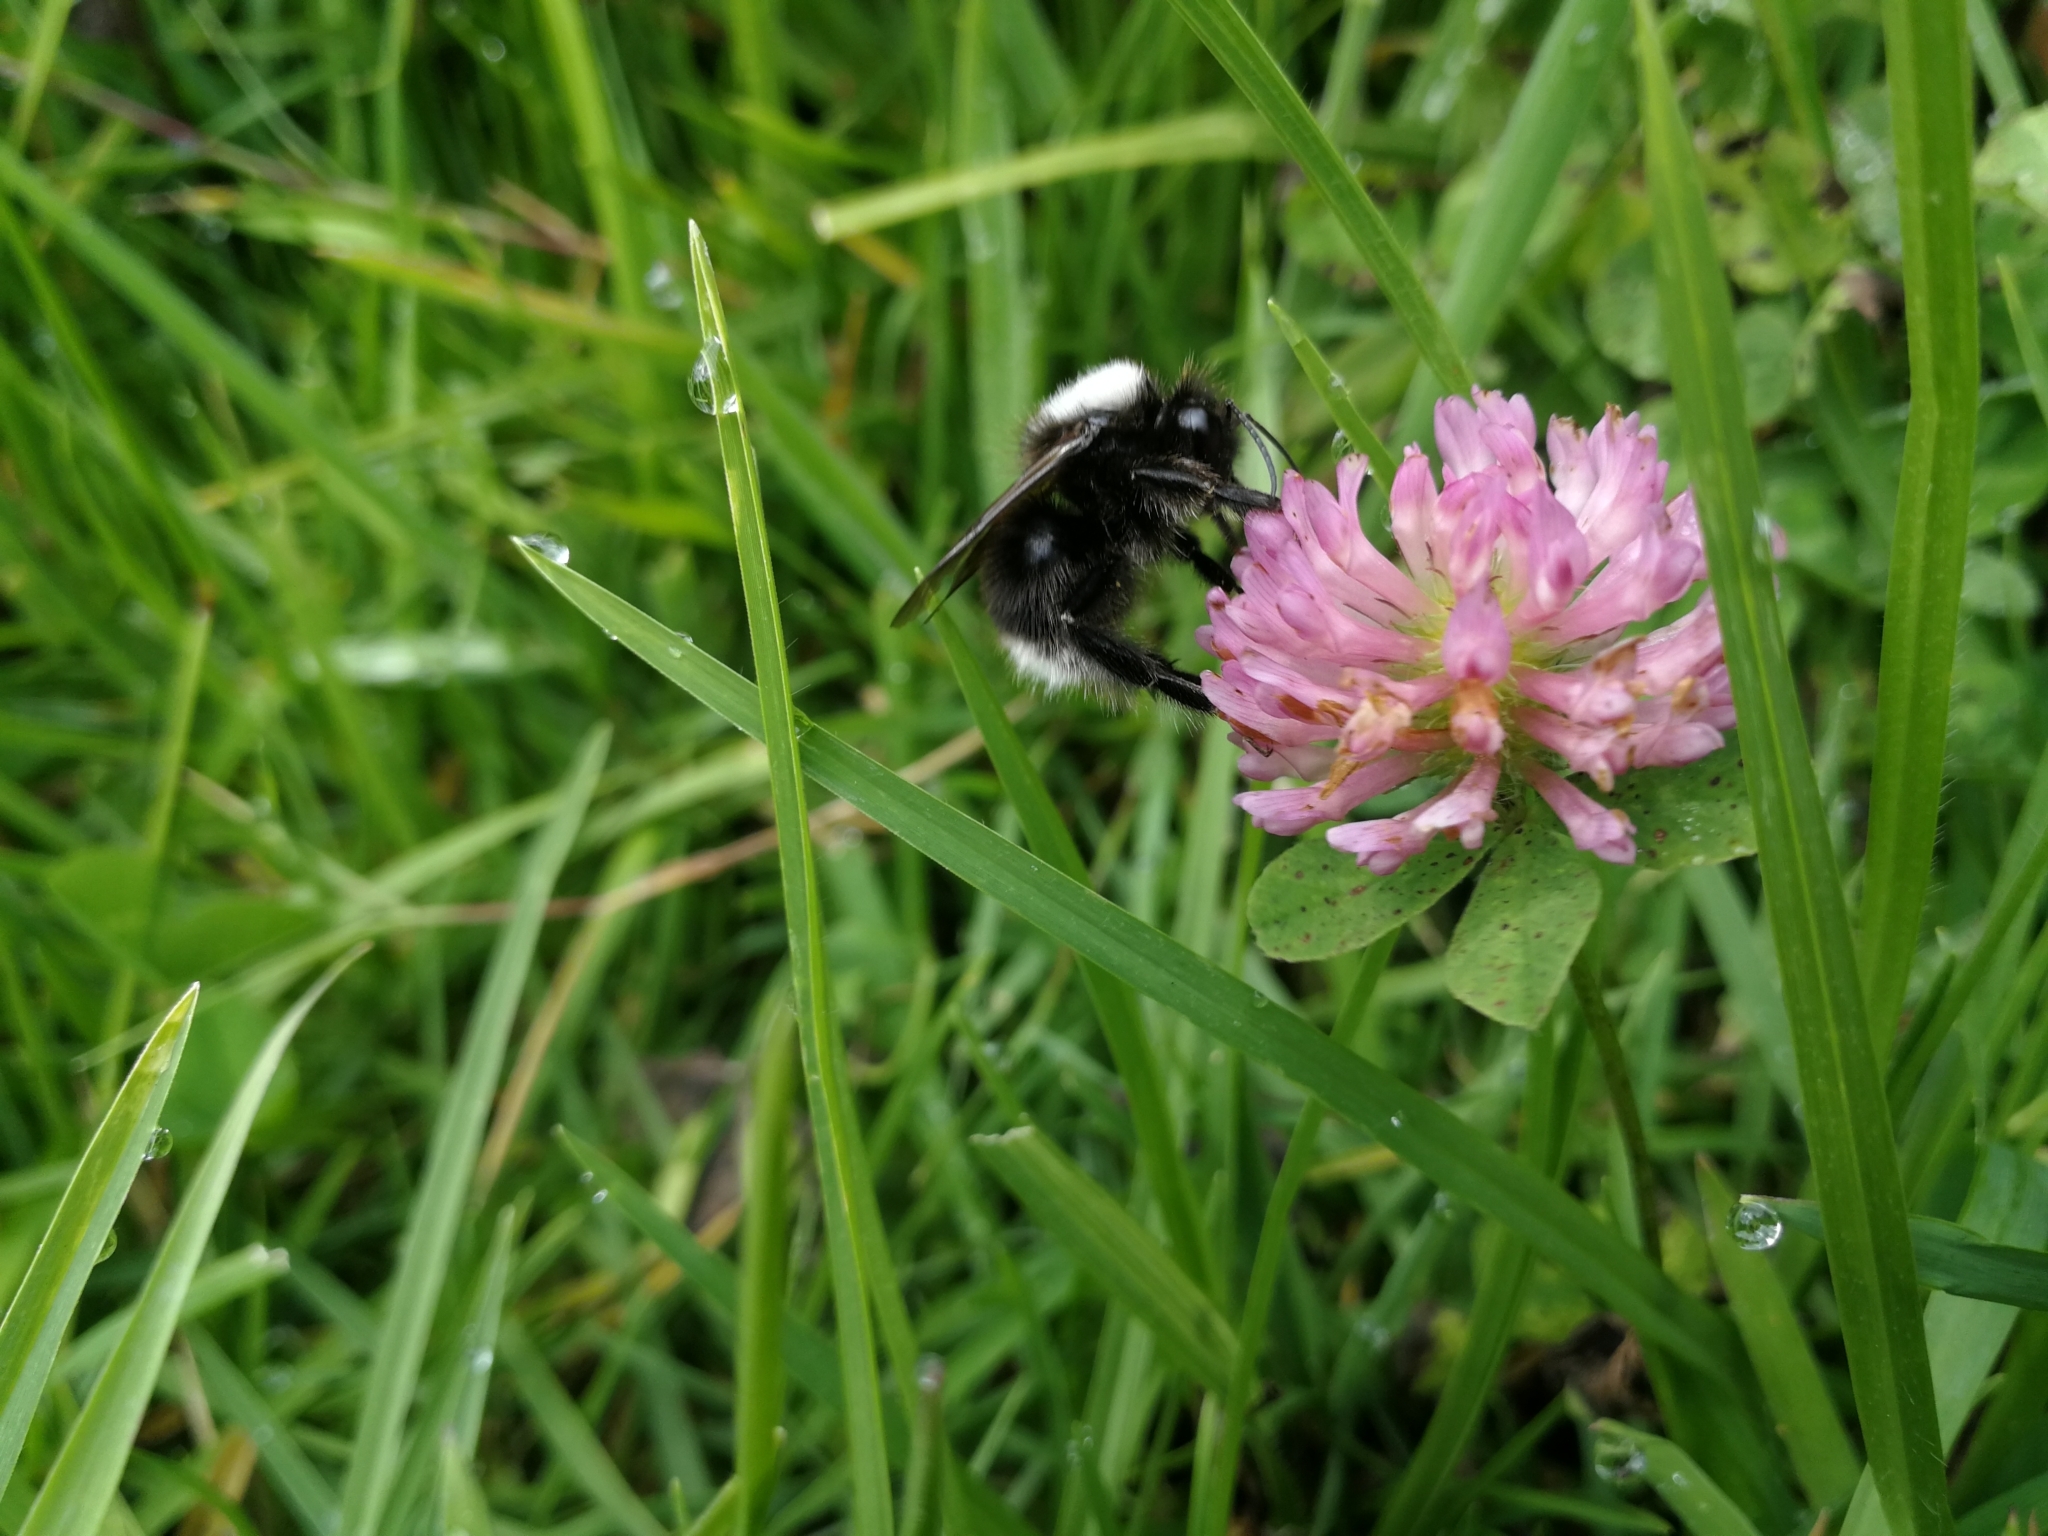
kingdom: Animalia
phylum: Arthropoda
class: Insecta
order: Hymenoptera
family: Apidae
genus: Bombus
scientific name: Bombus funebris
